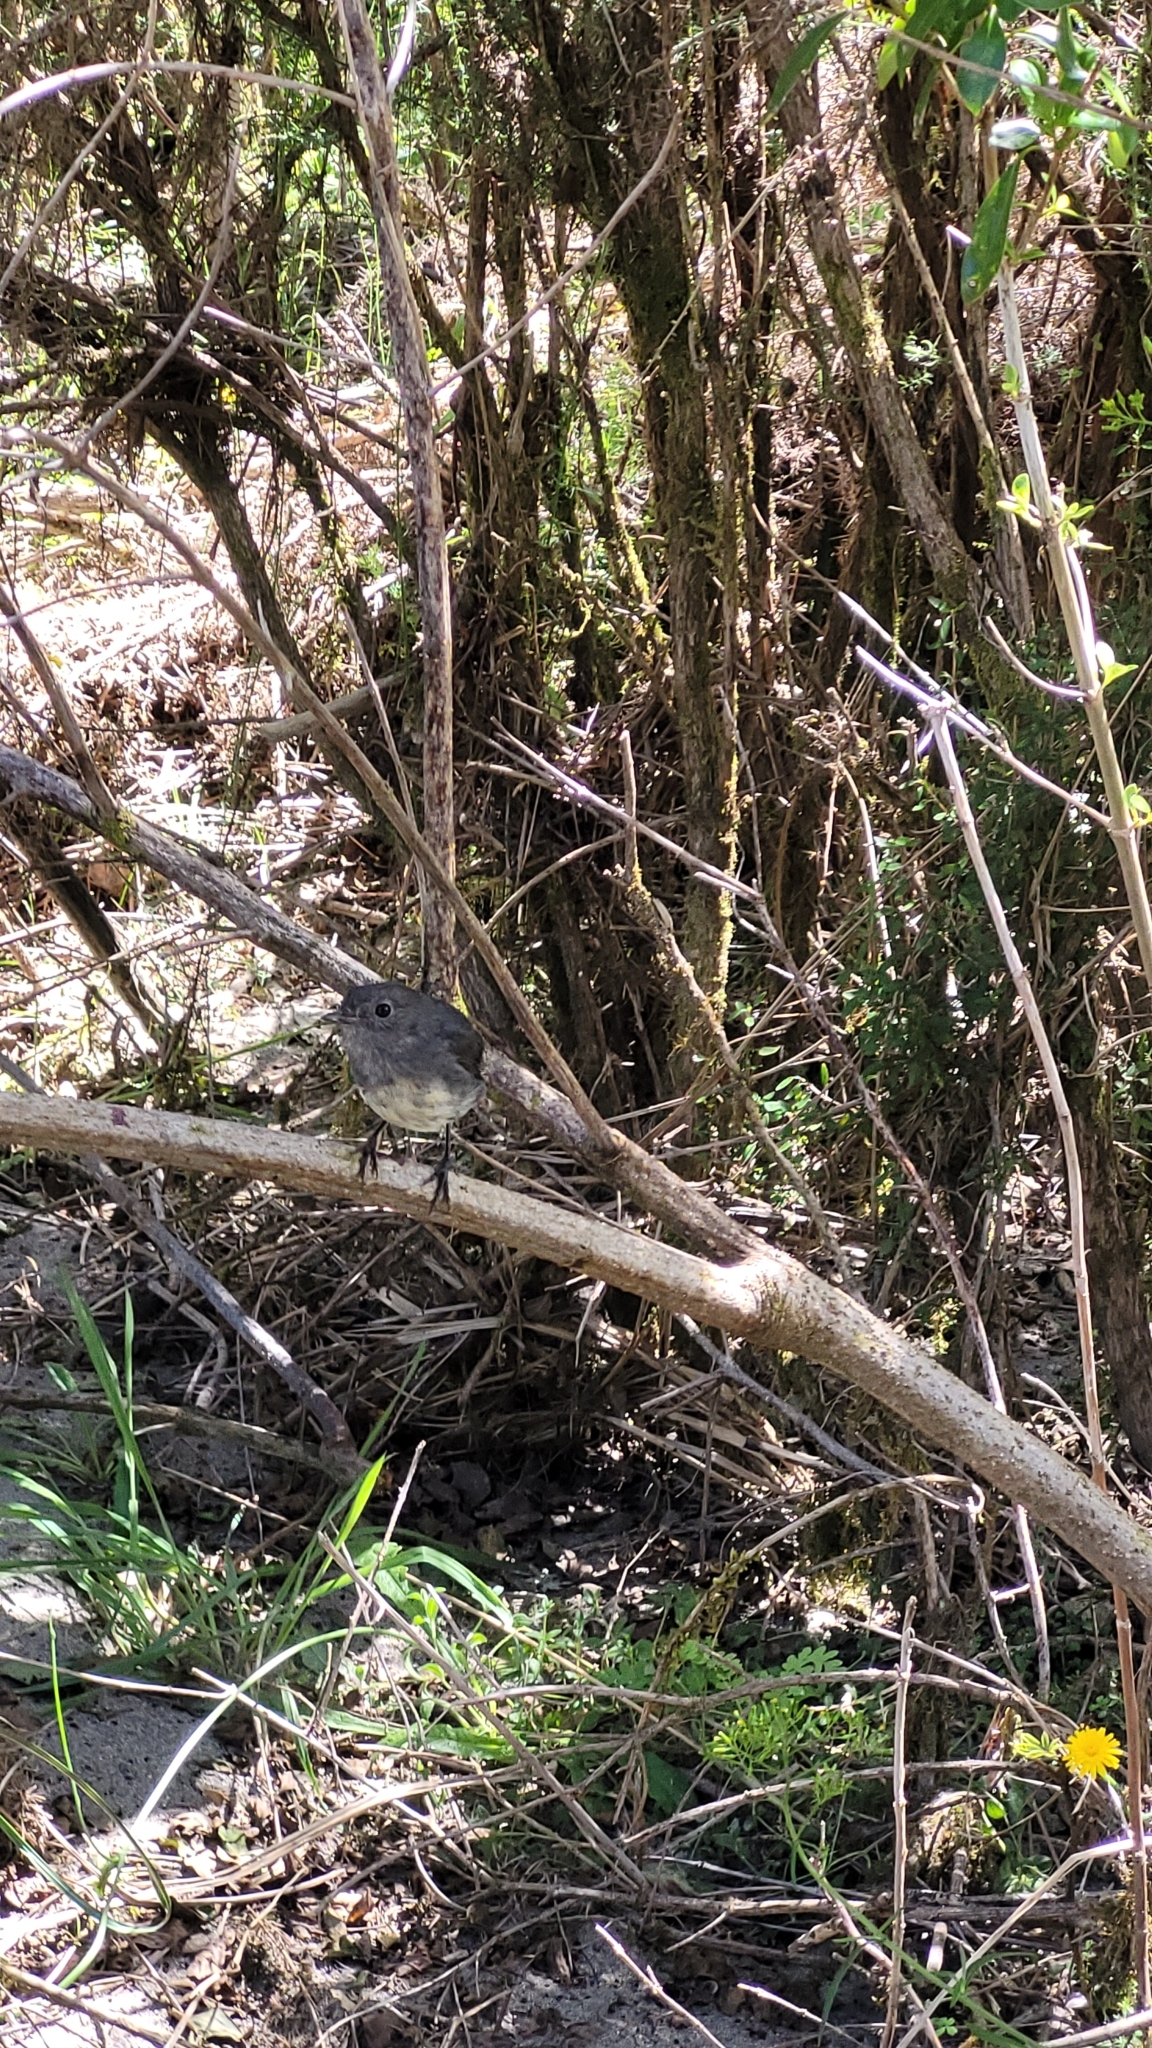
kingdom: Animalia
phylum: Chordata
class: Aves
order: Passeriformes
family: Petroicidae
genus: Petroica
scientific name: Petroica australis
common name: New zealand robin
